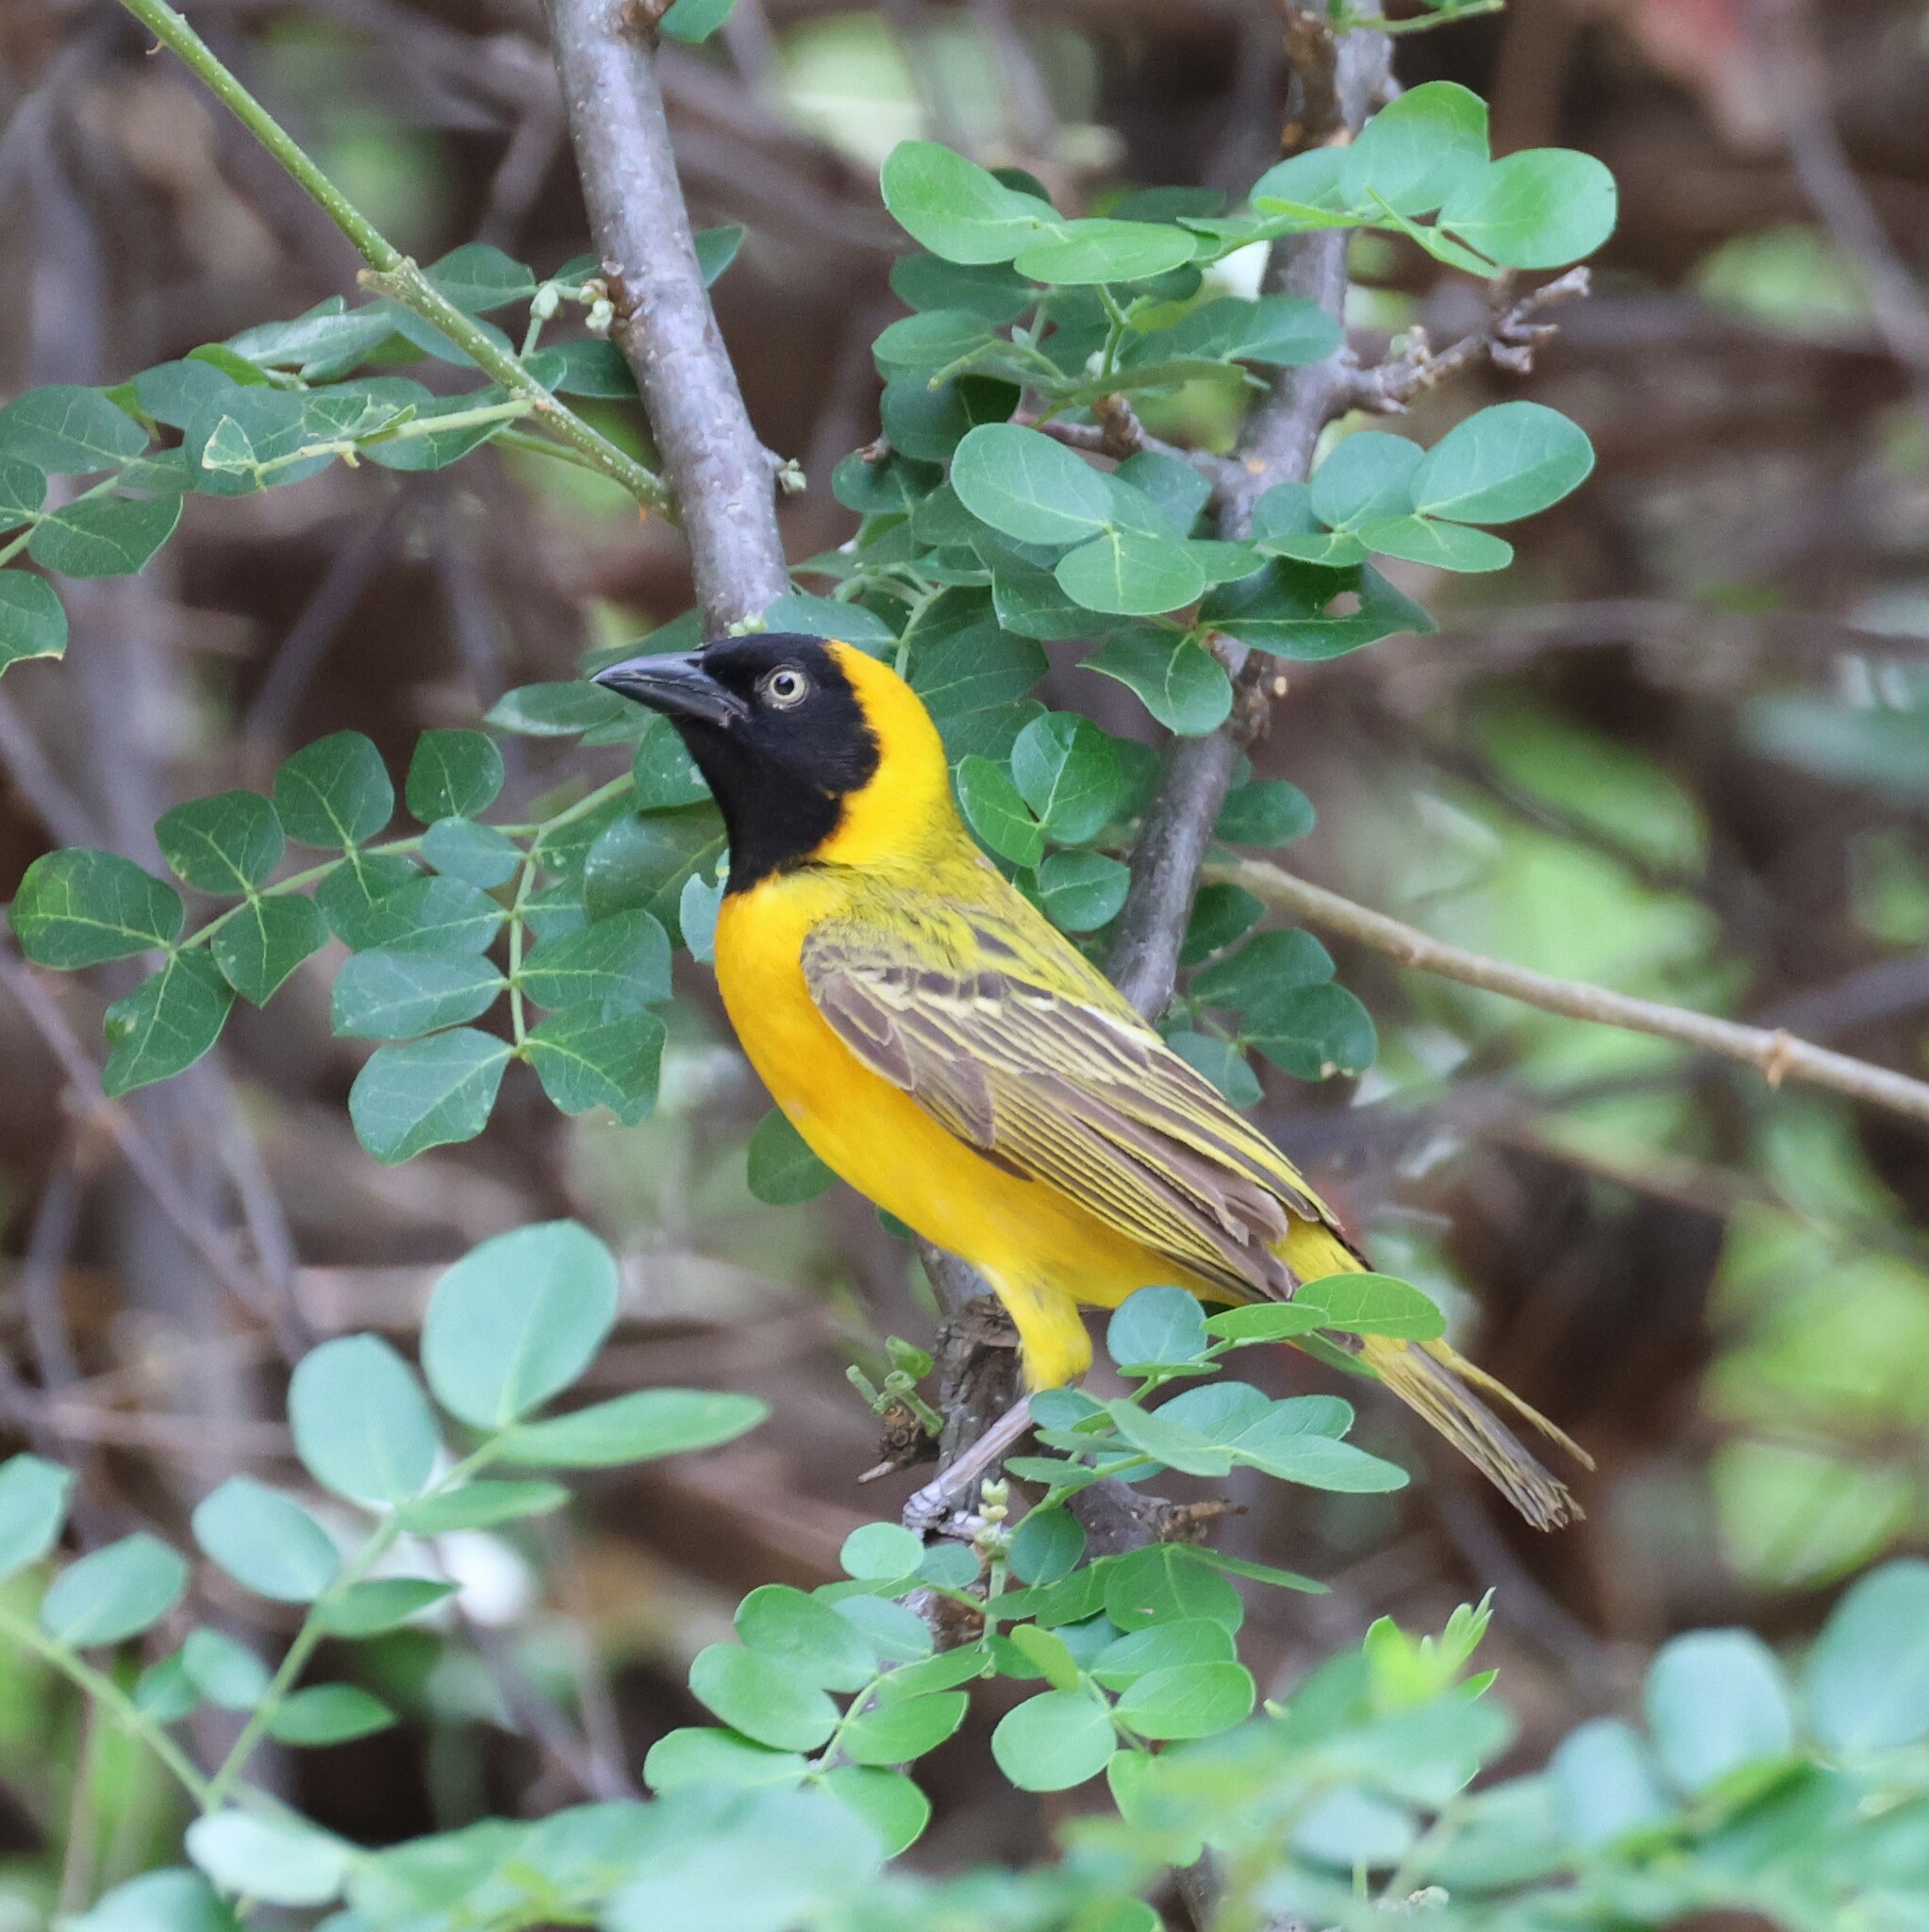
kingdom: Animalia
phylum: Chordata
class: Aves
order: Passeriformes
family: Ploceidae
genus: Ploceus
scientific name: Ploceus intermedius
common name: Lesser masked weaver
